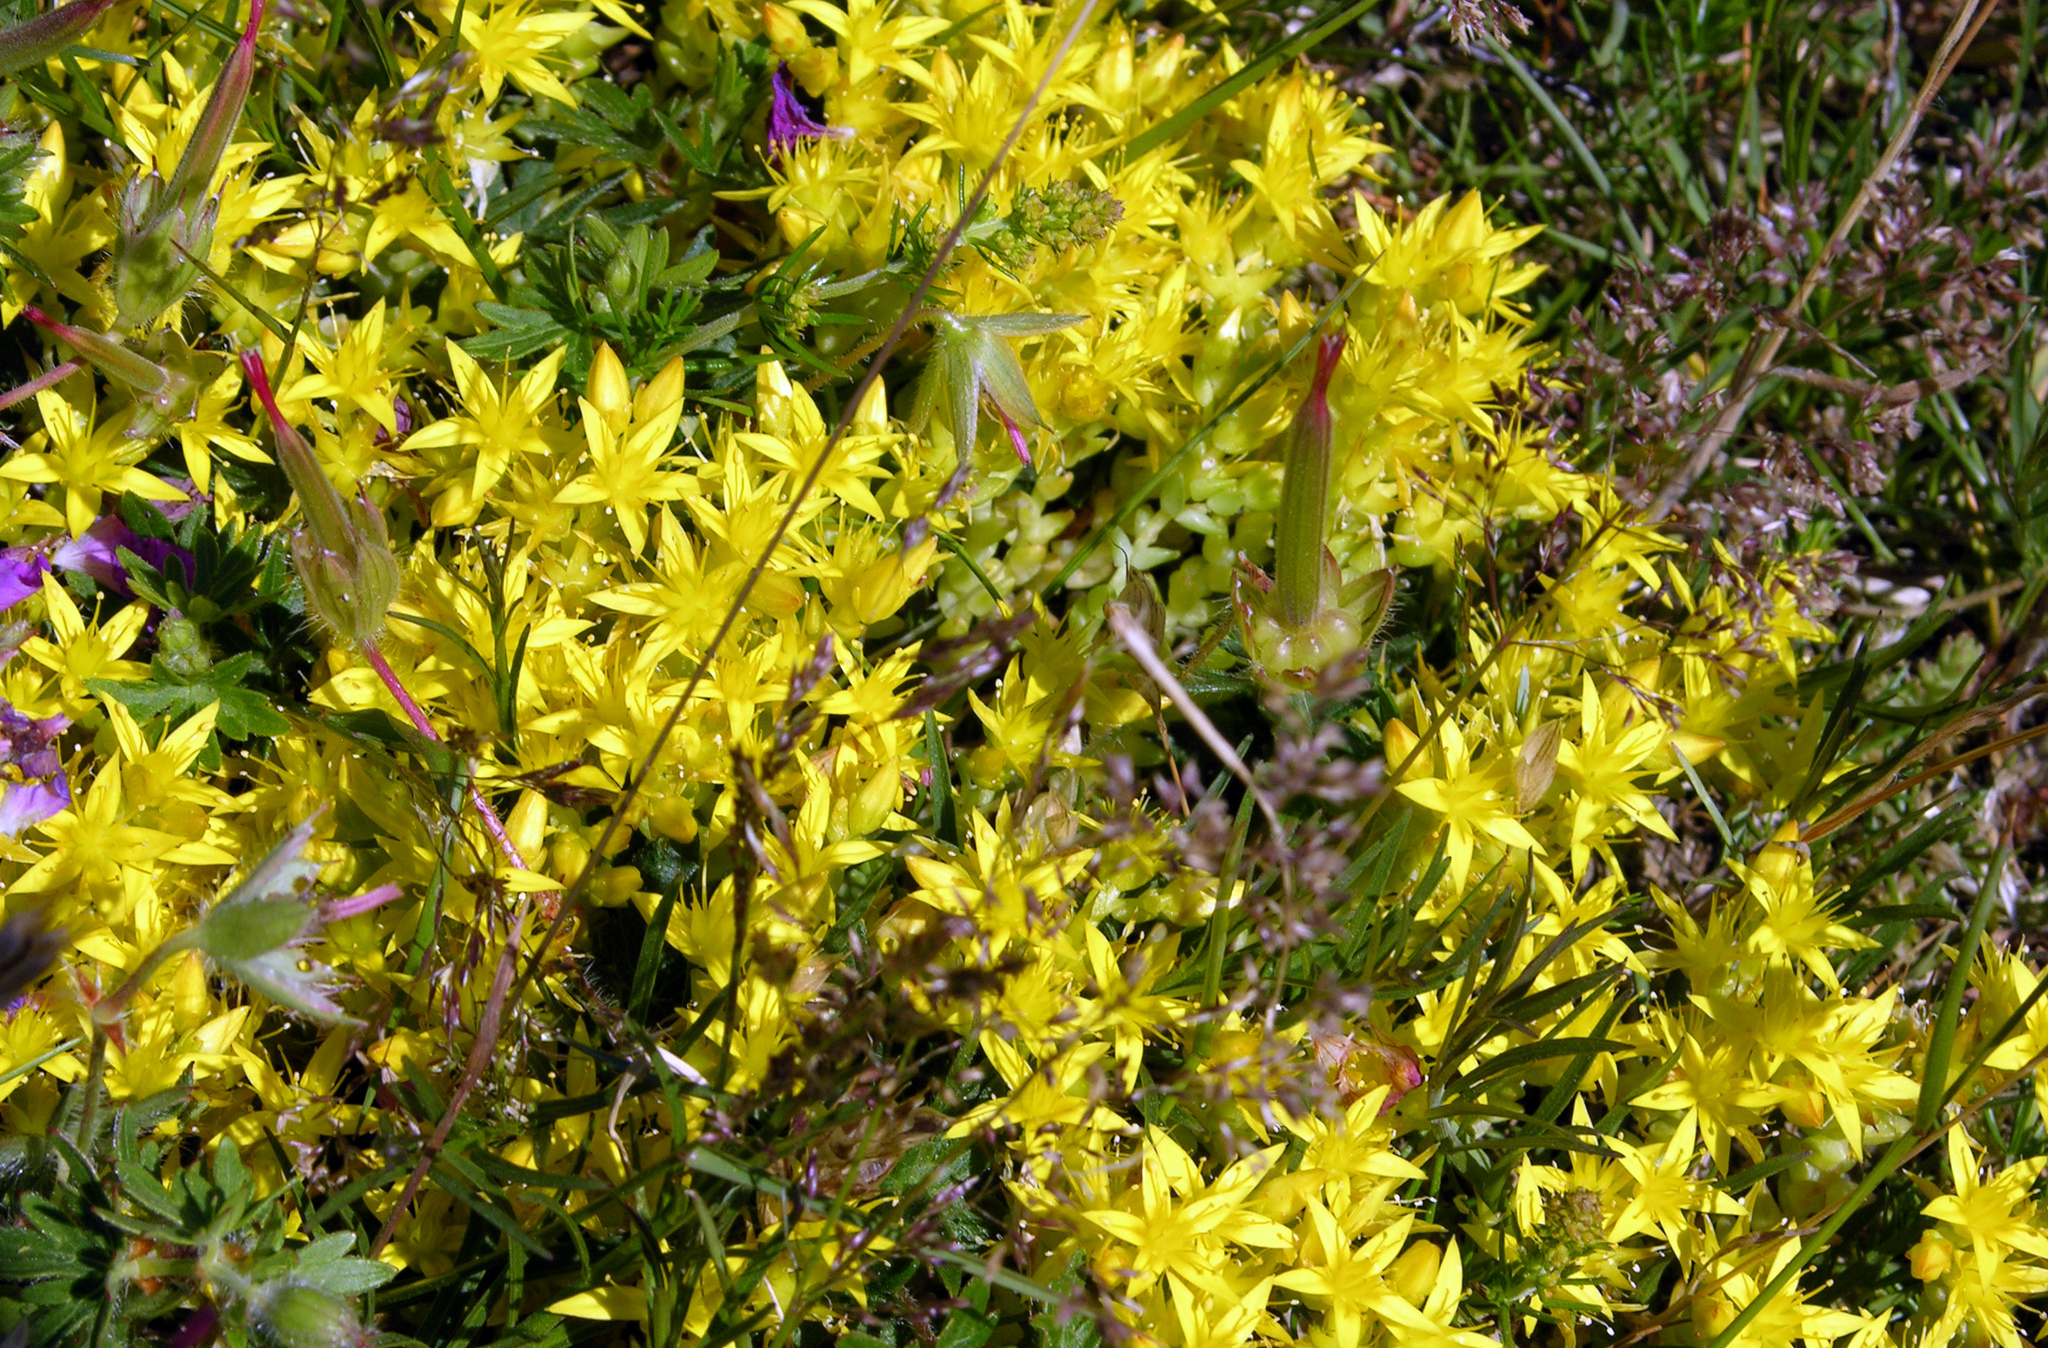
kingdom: Plantae
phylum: Tracheophyta
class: Magnoliopsida
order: Saxifragales
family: Crassulaceae
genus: Sedum
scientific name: Sedum acre
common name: Biting stonecrop
